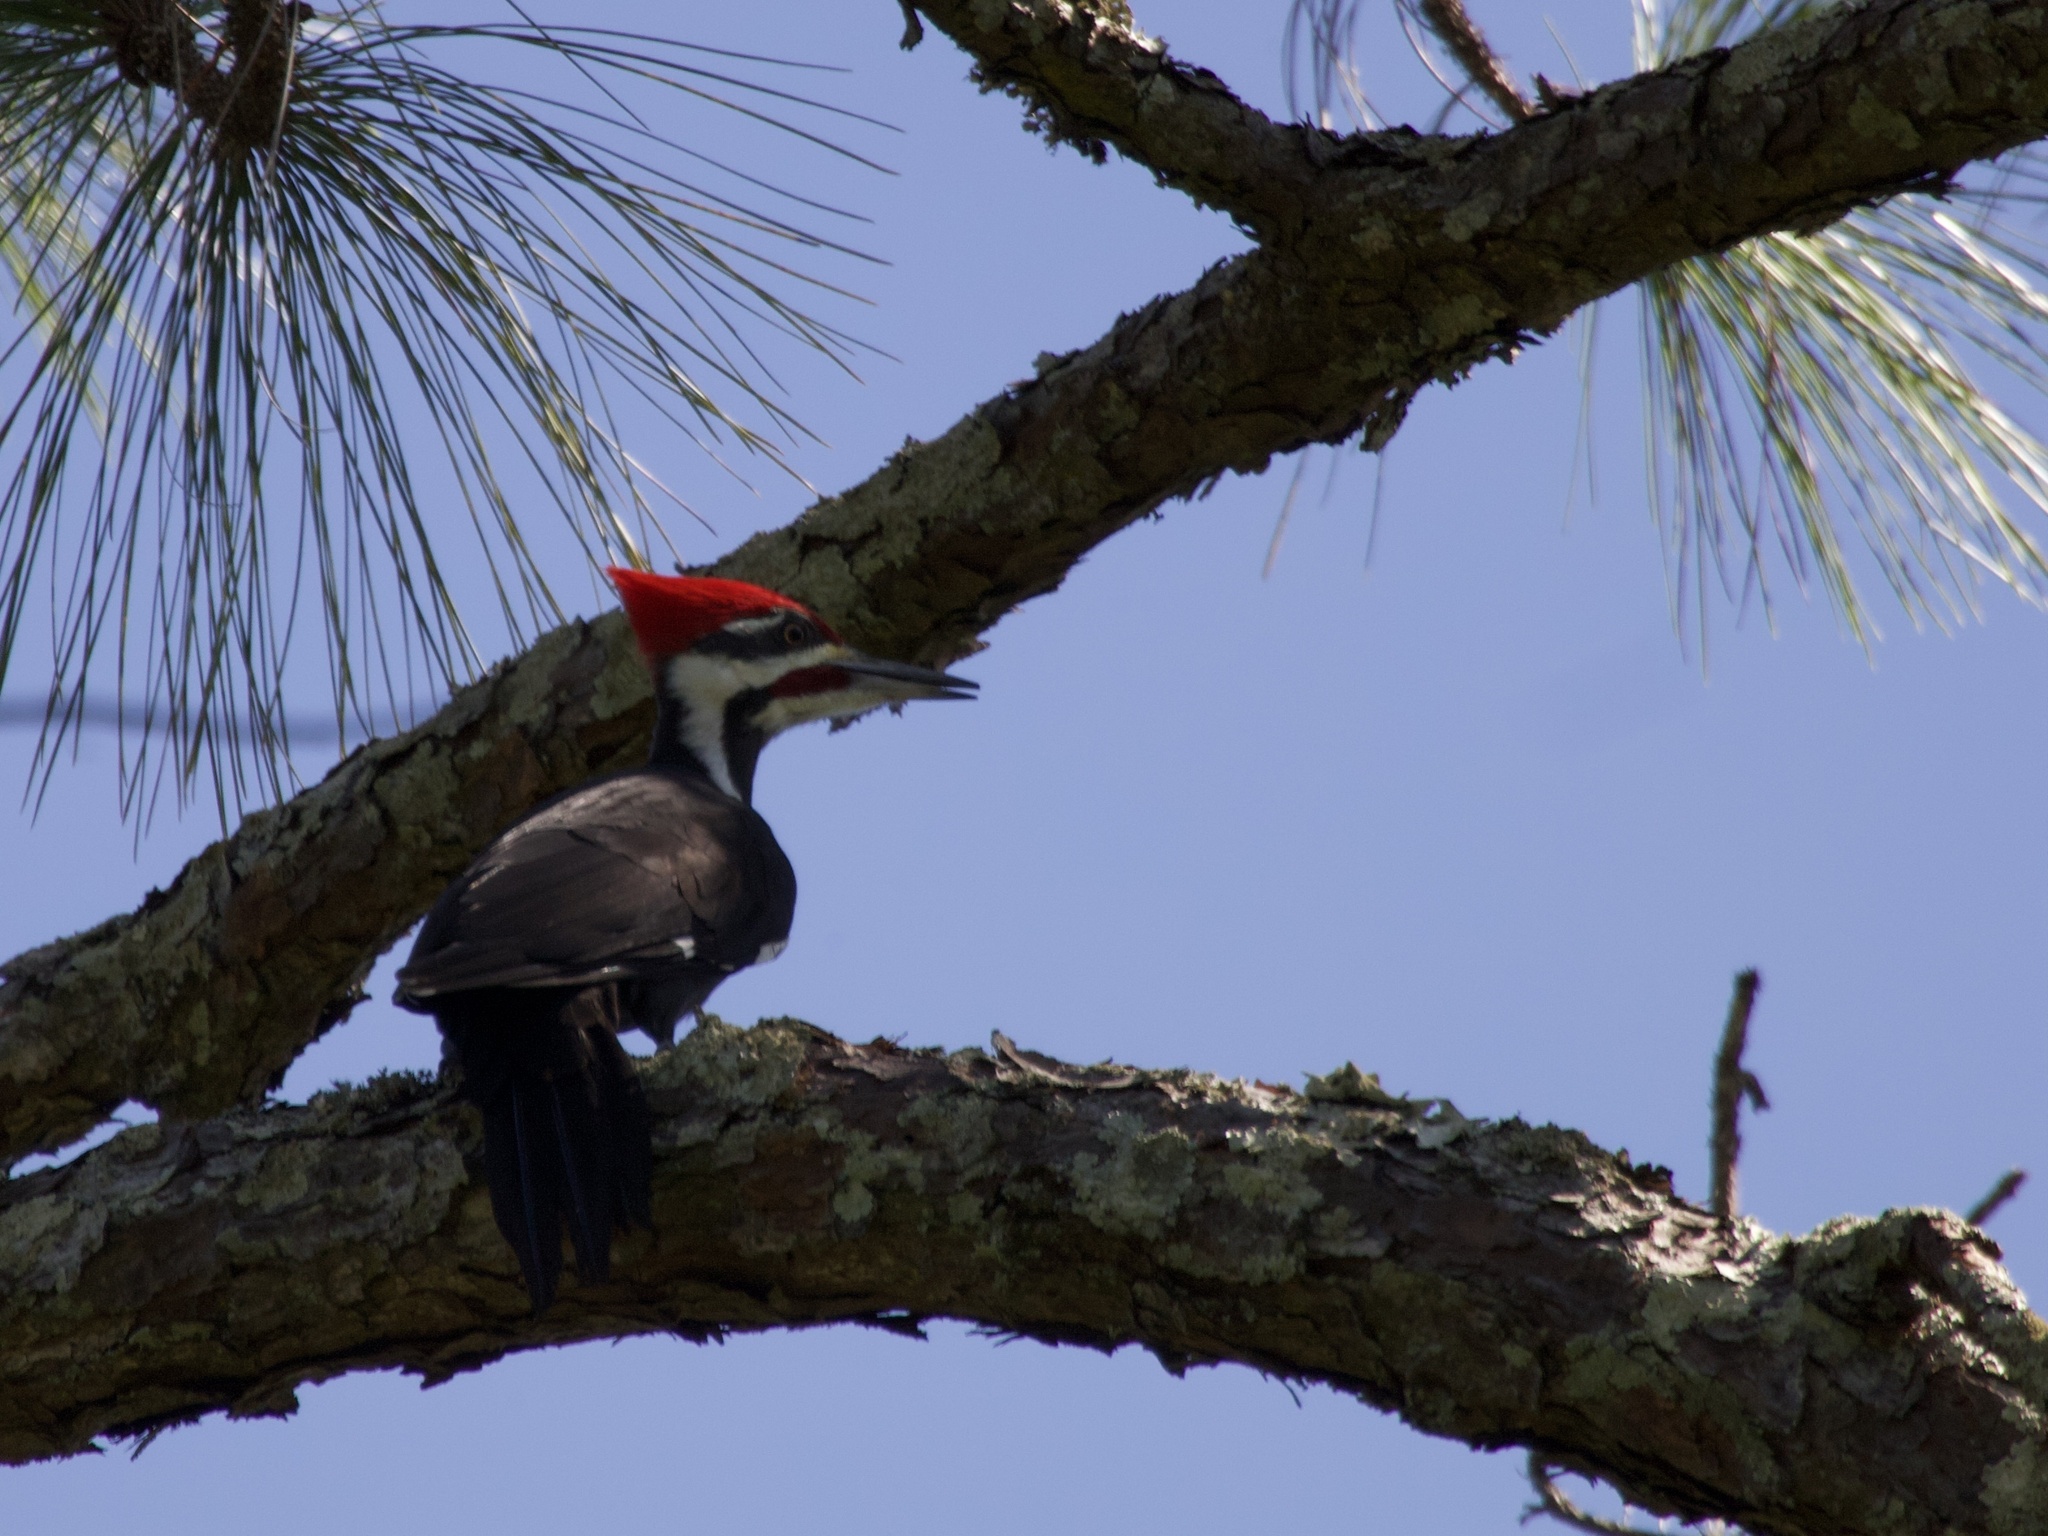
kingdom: Animalia
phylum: Chordata
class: Aves
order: Piciformes
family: Picidae
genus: Dryocopus
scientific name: Dryocopus pileatus
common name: Pileated woodpecker
